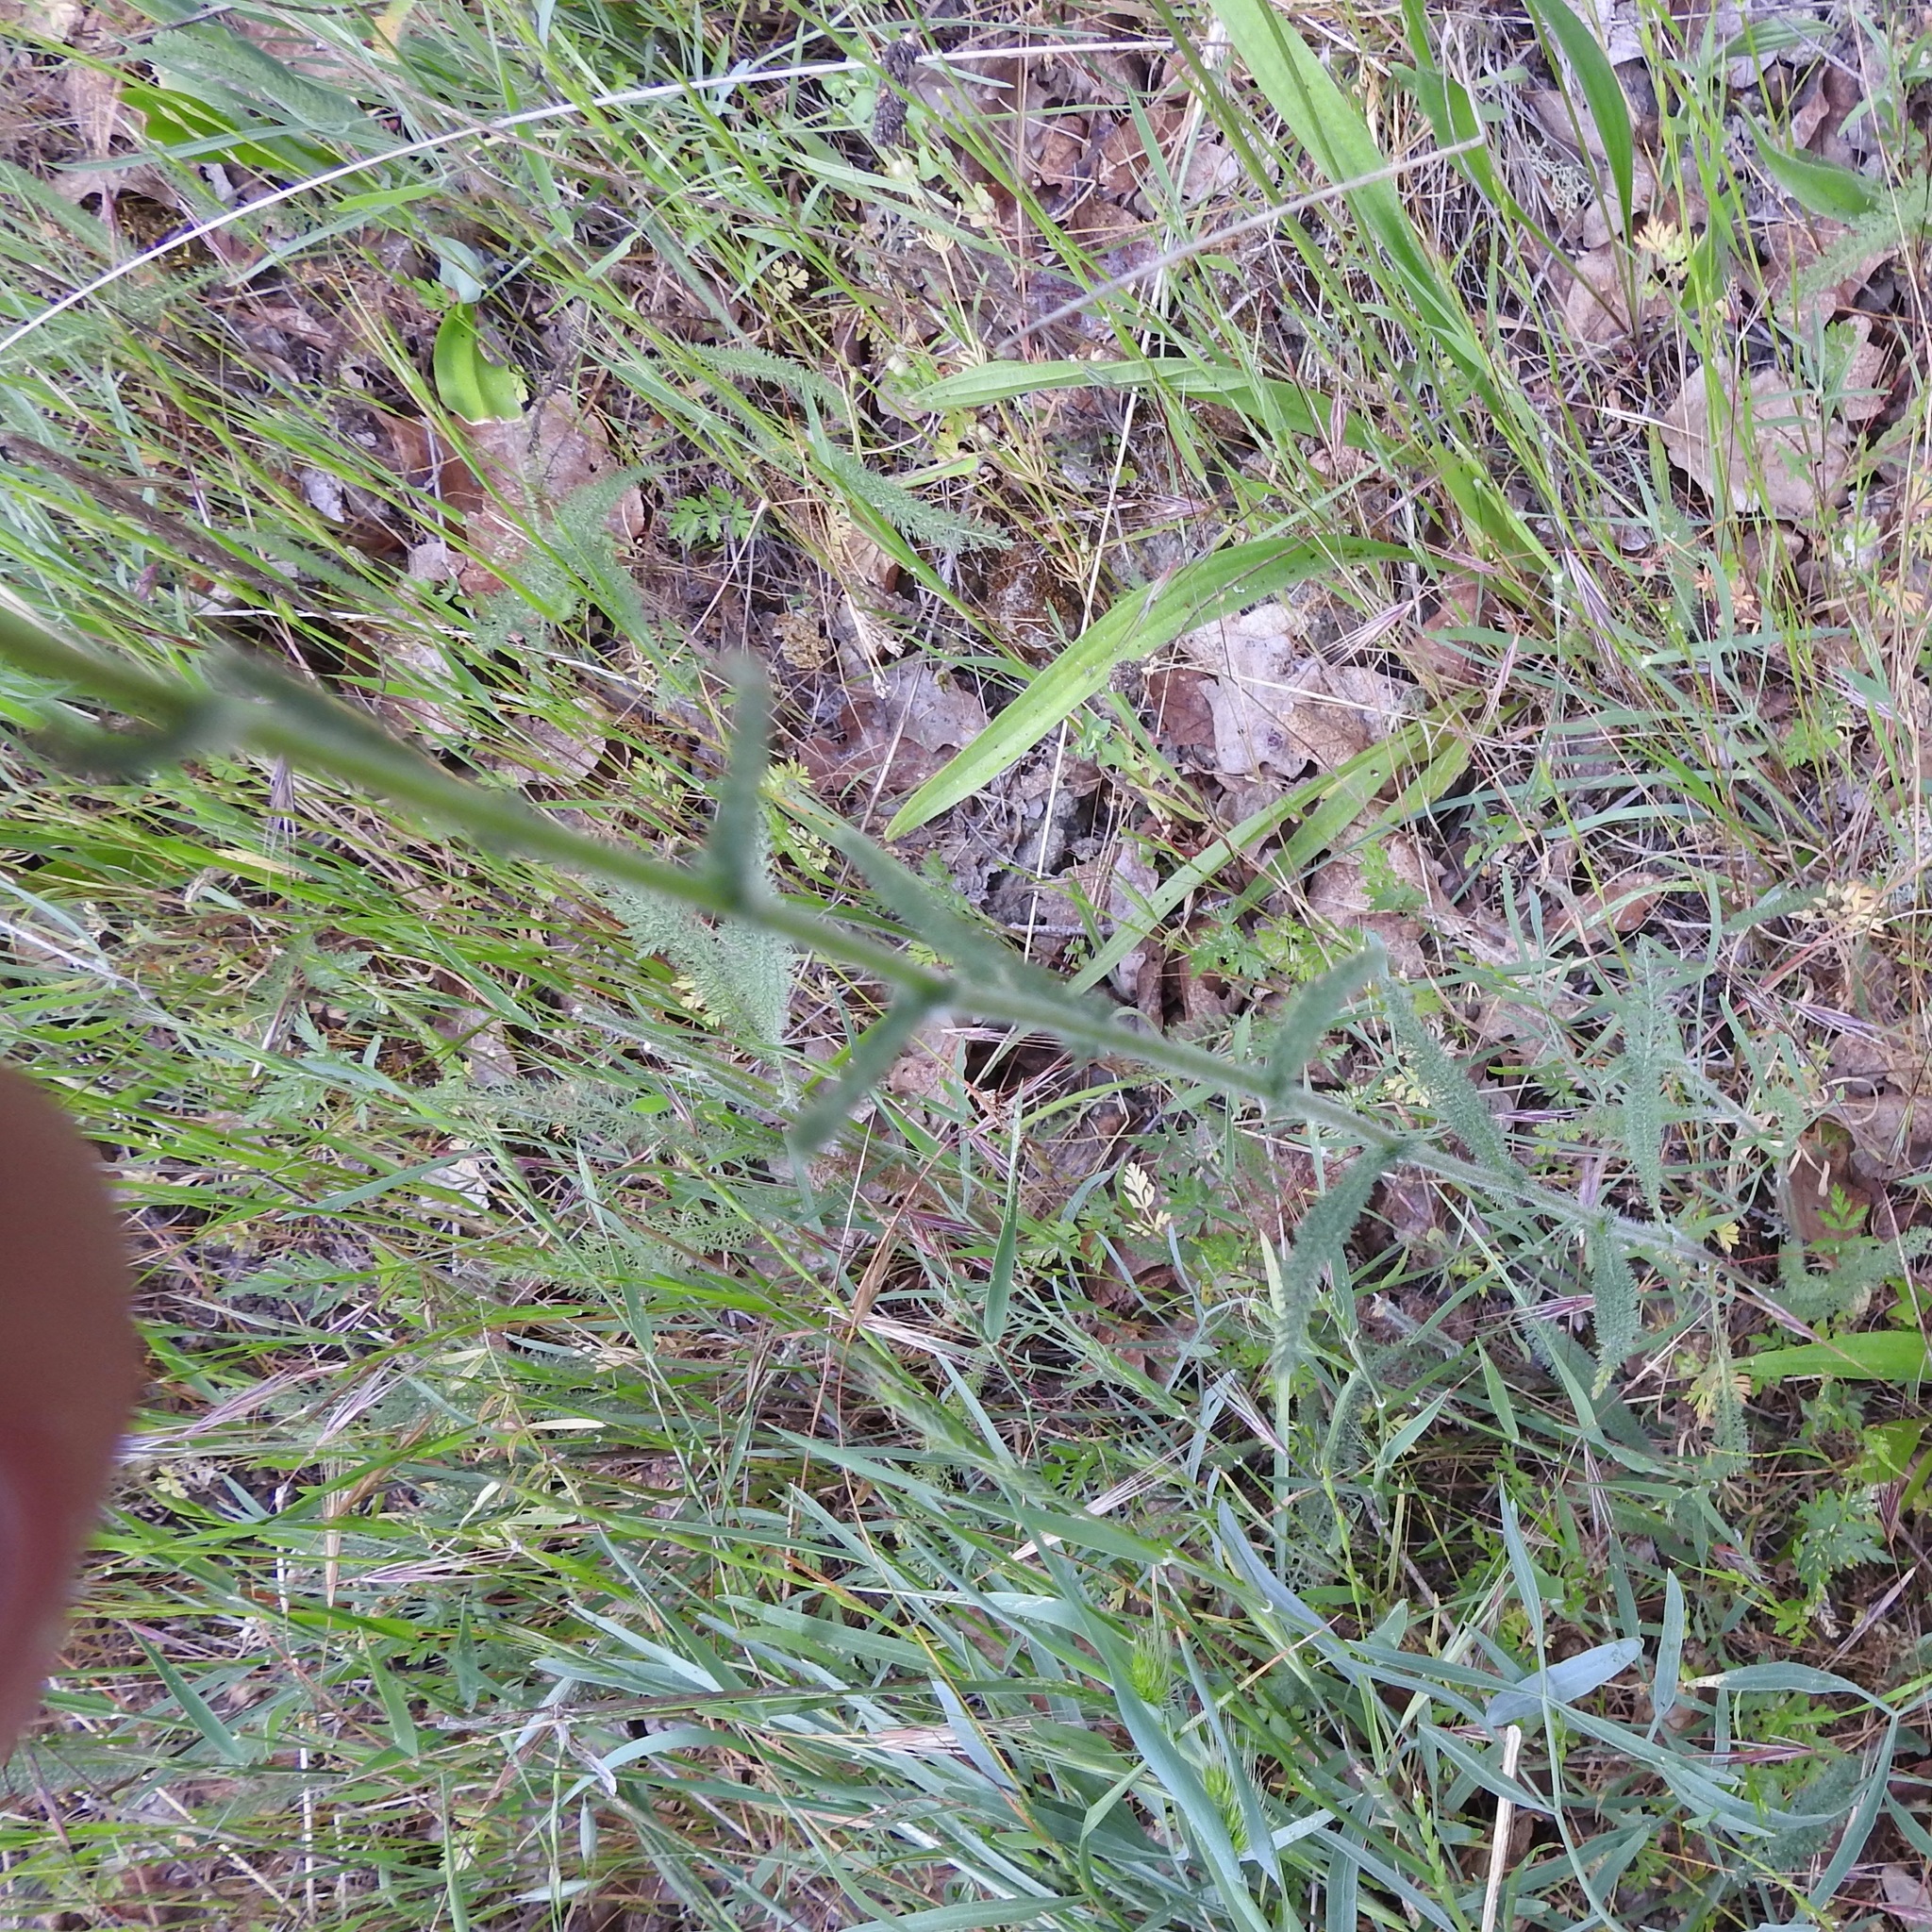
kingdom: Plantae
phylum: Tracheophyta
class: Magnoliopsida
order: Asterales
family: Asteraceae
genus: Achillea
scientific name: Achillea millefolium
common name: Yarrow
